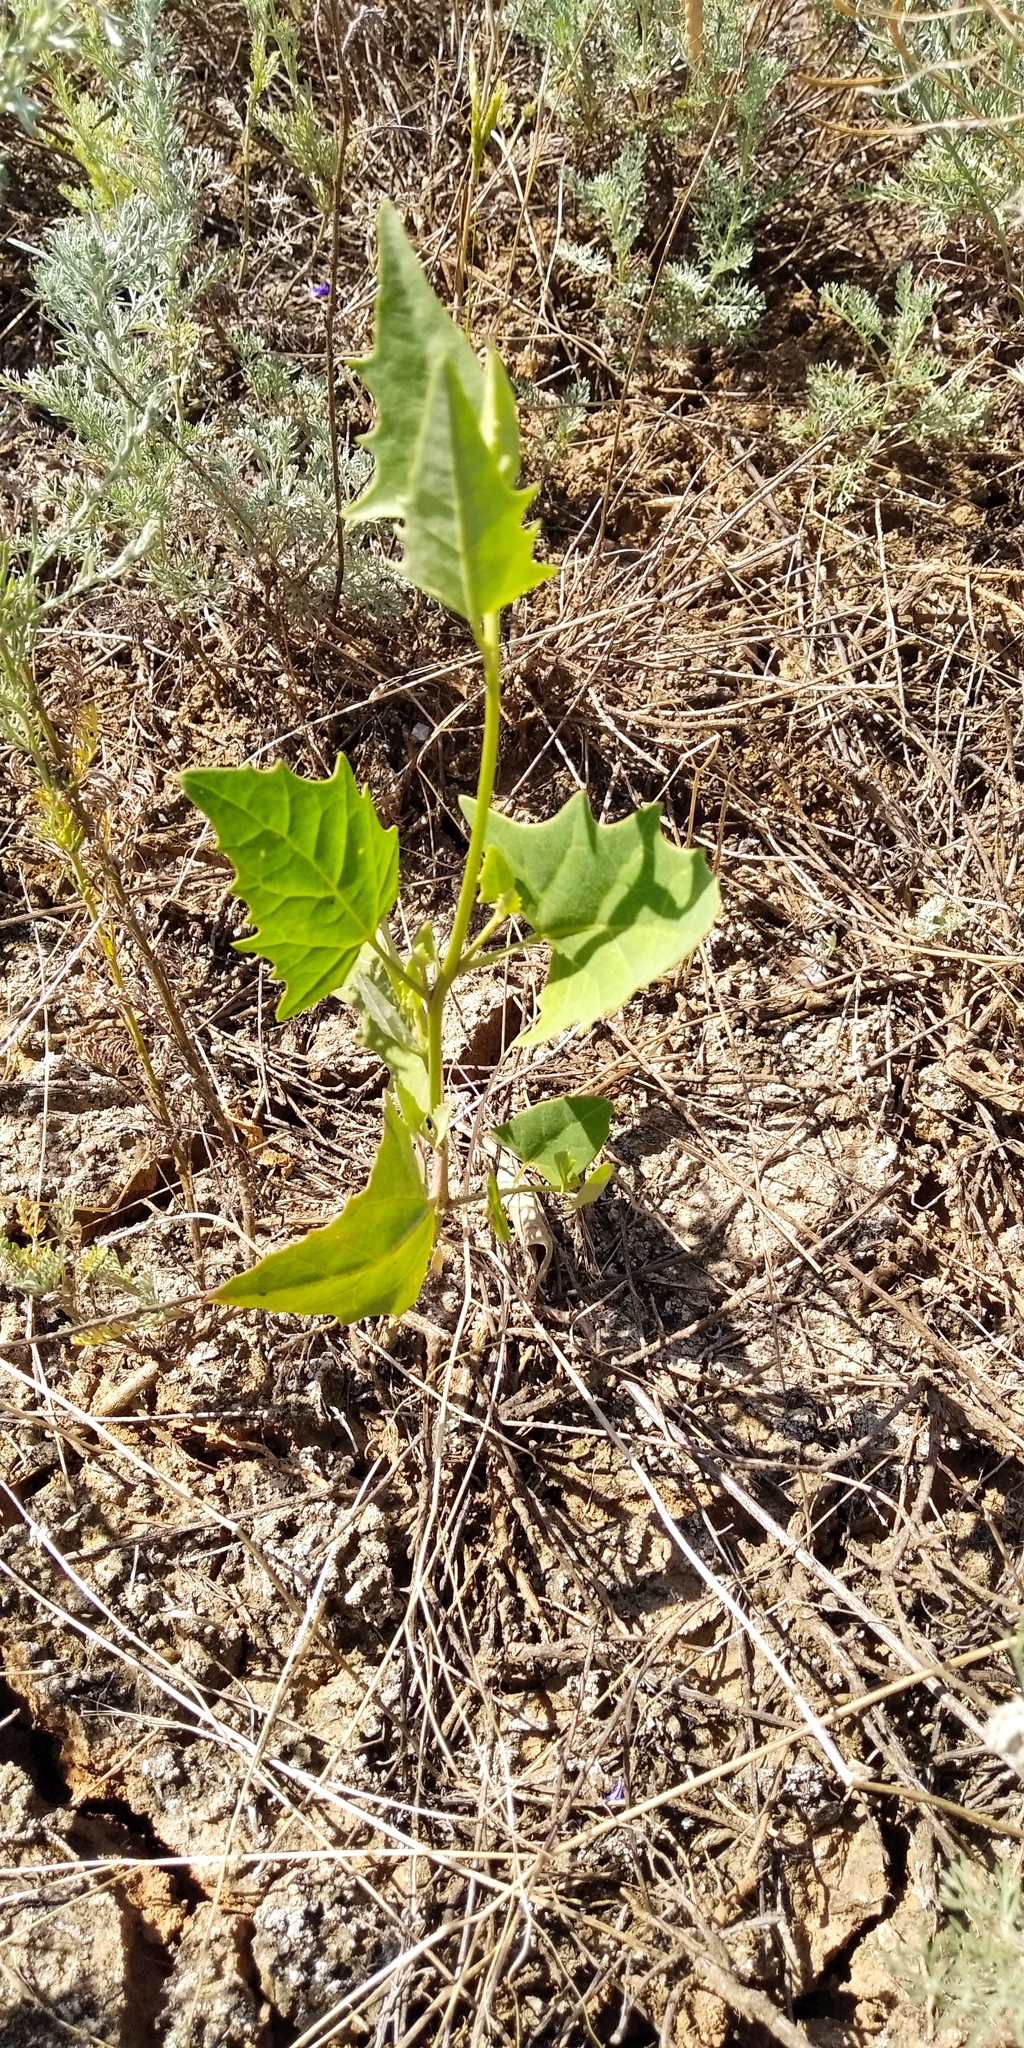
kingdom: Plantae
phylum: Tracheophyta
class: Magnoliopsida
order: Caryophyllales
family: Amaranthaceae
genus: Atriplex
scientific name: Atriplex prostrata
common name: Spear-leaved orache
